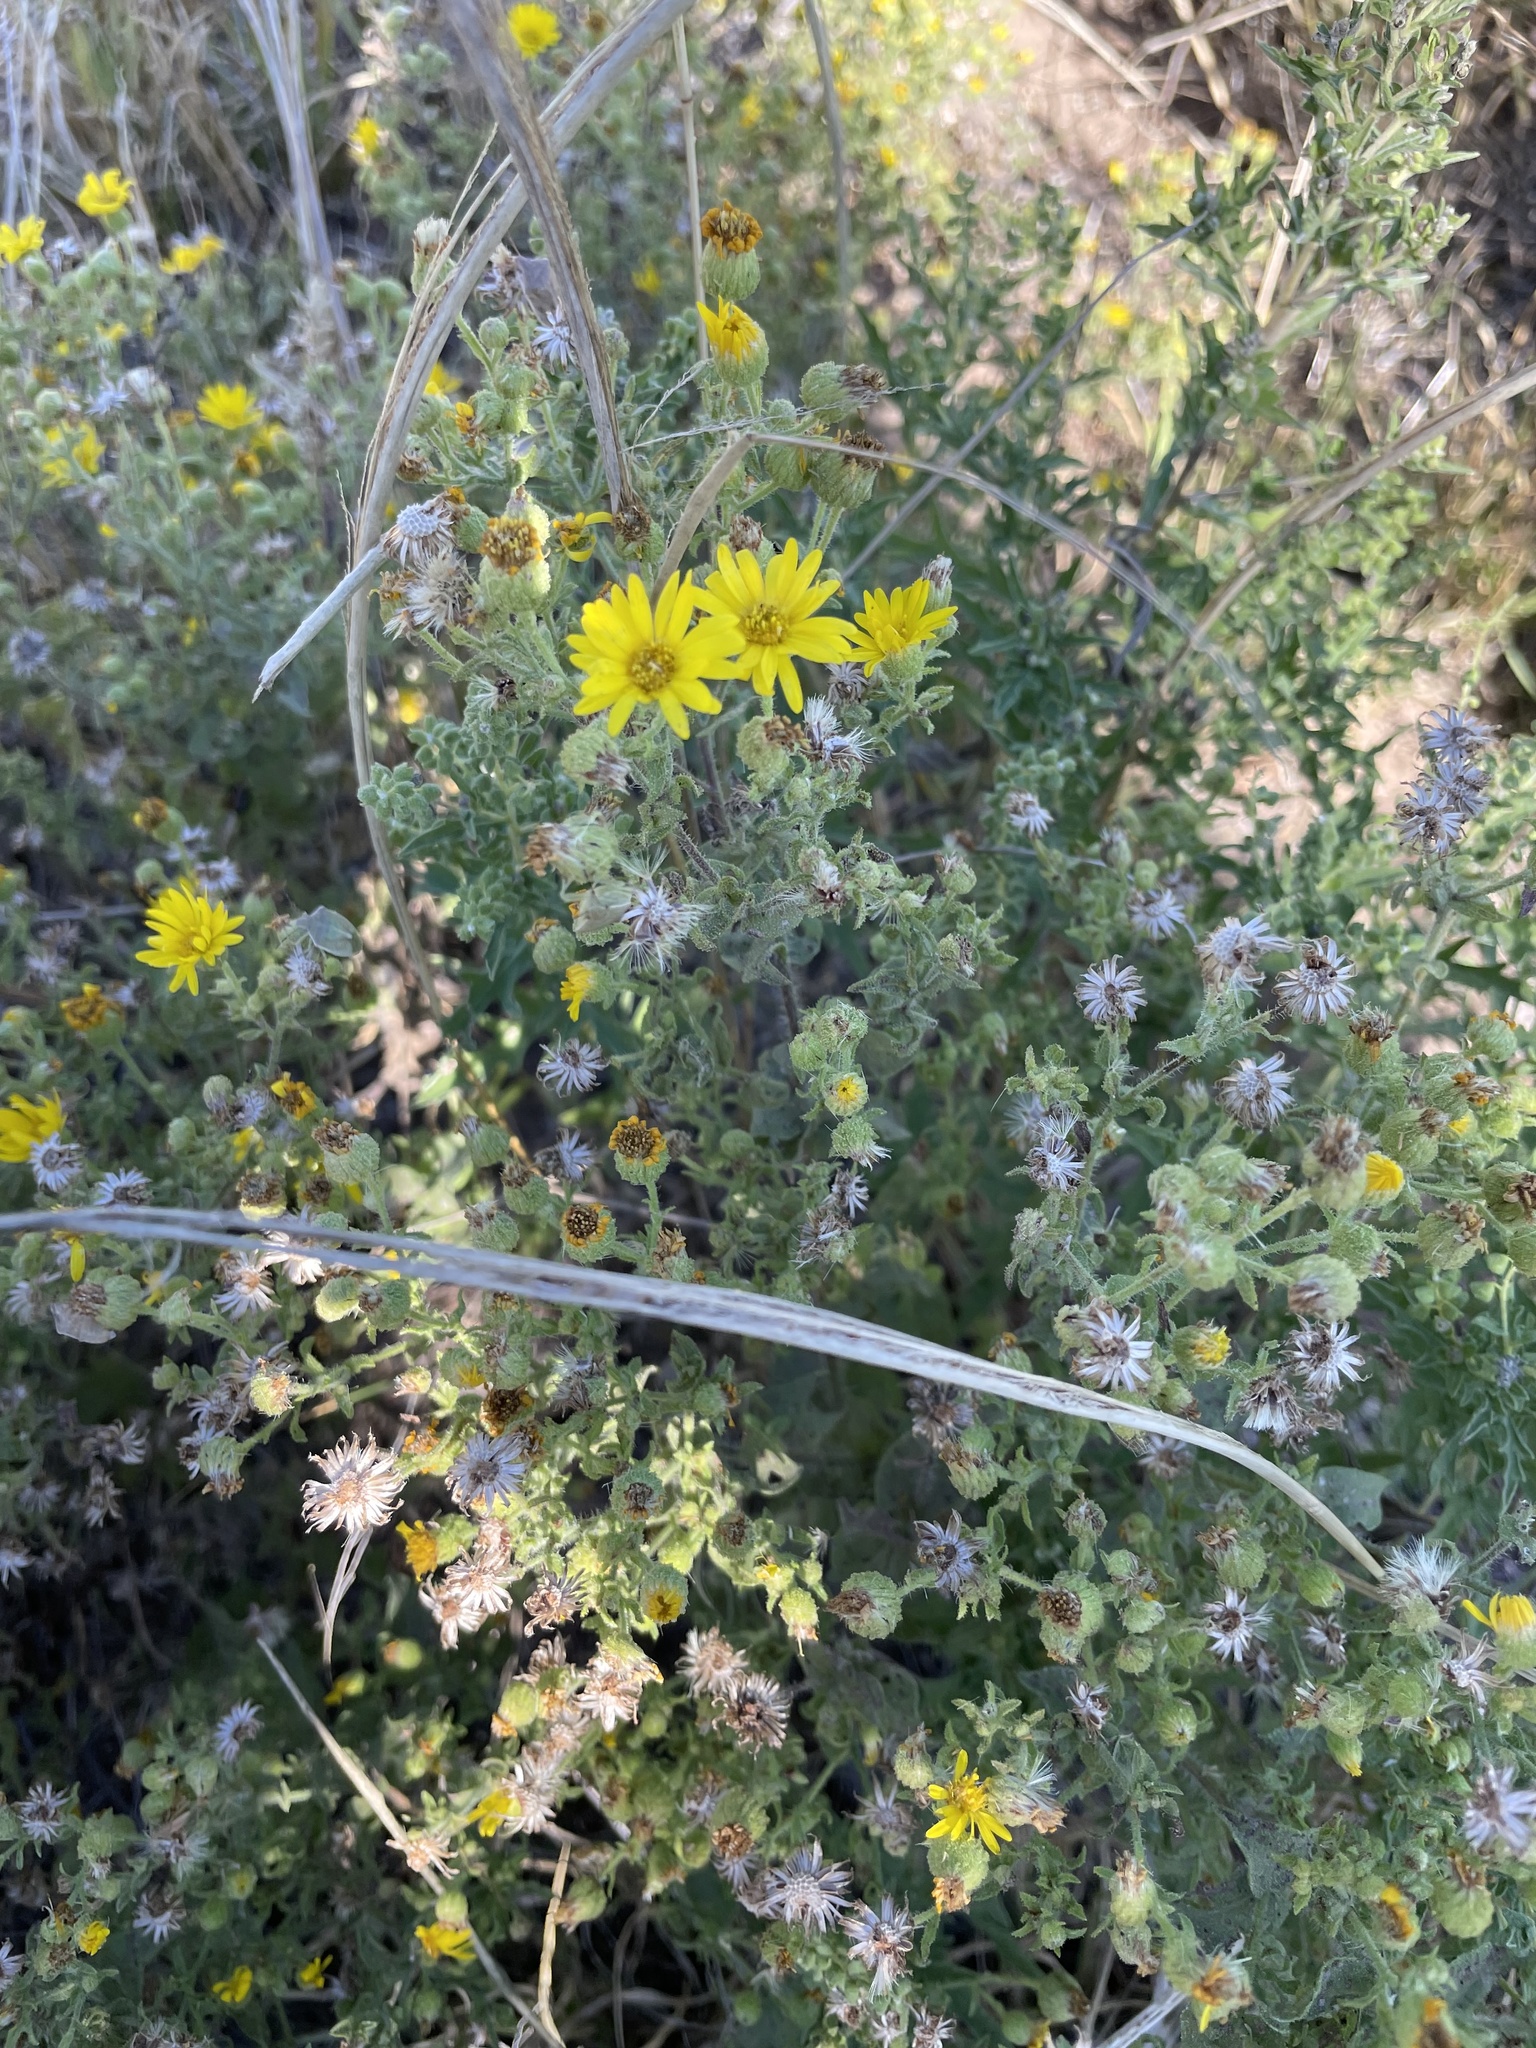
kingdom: Plantae
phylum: Tracheophyta
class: Magnoliopsida
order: Asterales
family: Asteraceae
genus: Heterotheca
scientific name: Heterotheca subaxillaris
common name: Camphorweed
